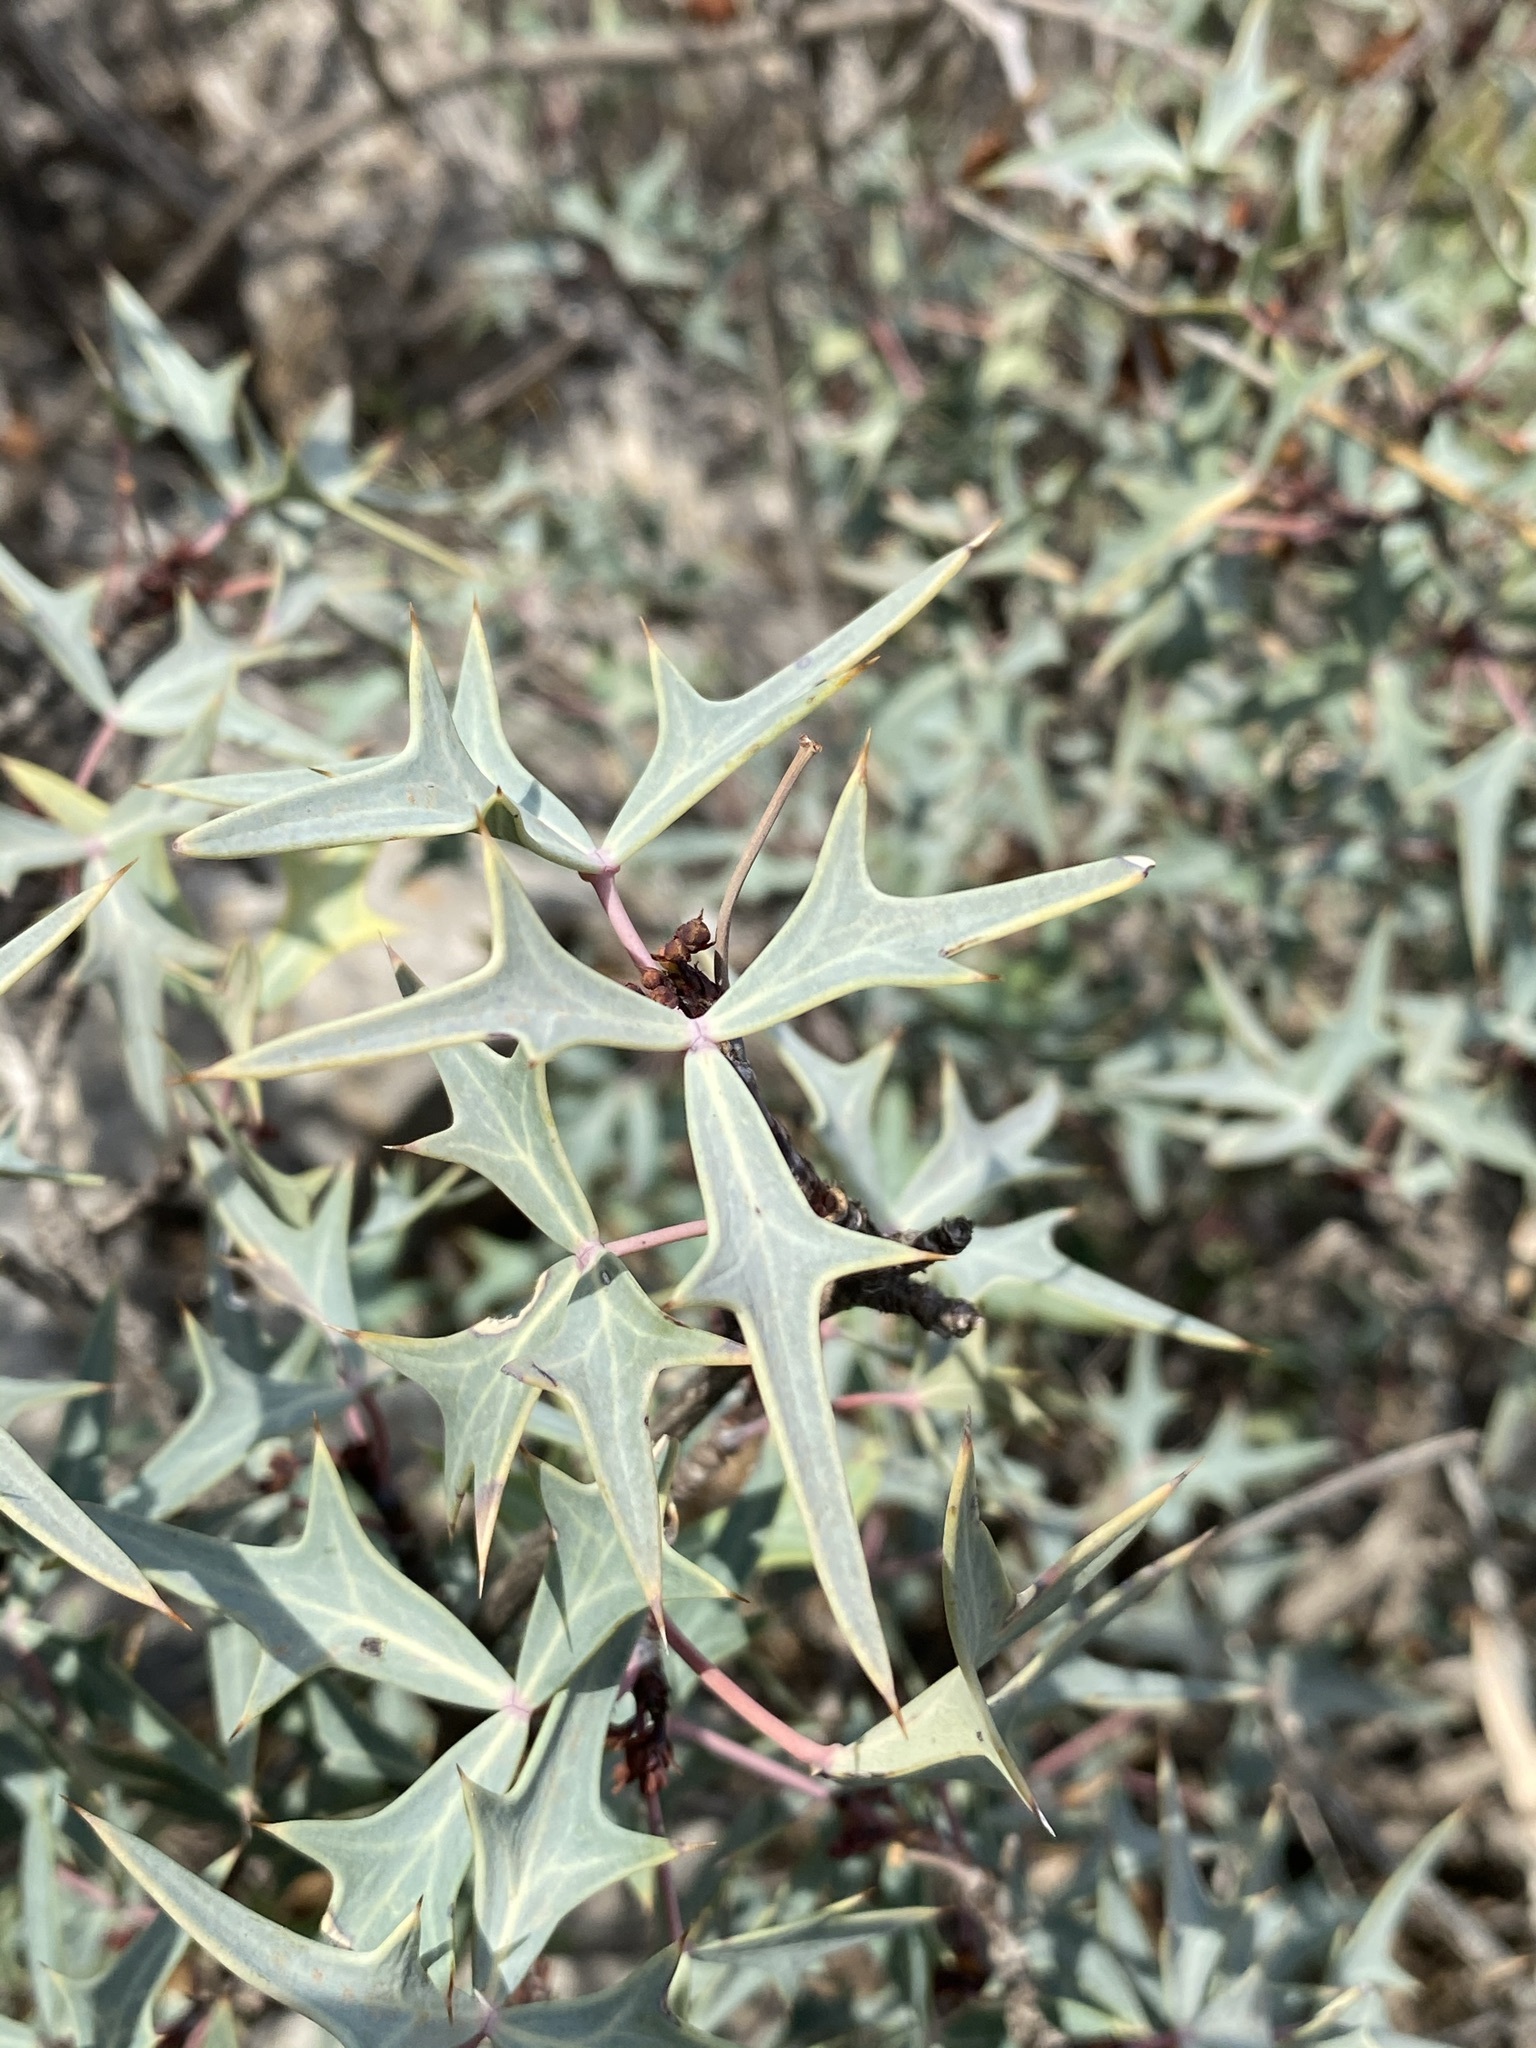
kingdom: Plantae
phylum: Tracheophyta
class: Magnoliopsida
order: Ranunculales
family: Berberidaceae
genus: Alloberberis
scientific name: Alloberberis trifoliolata
